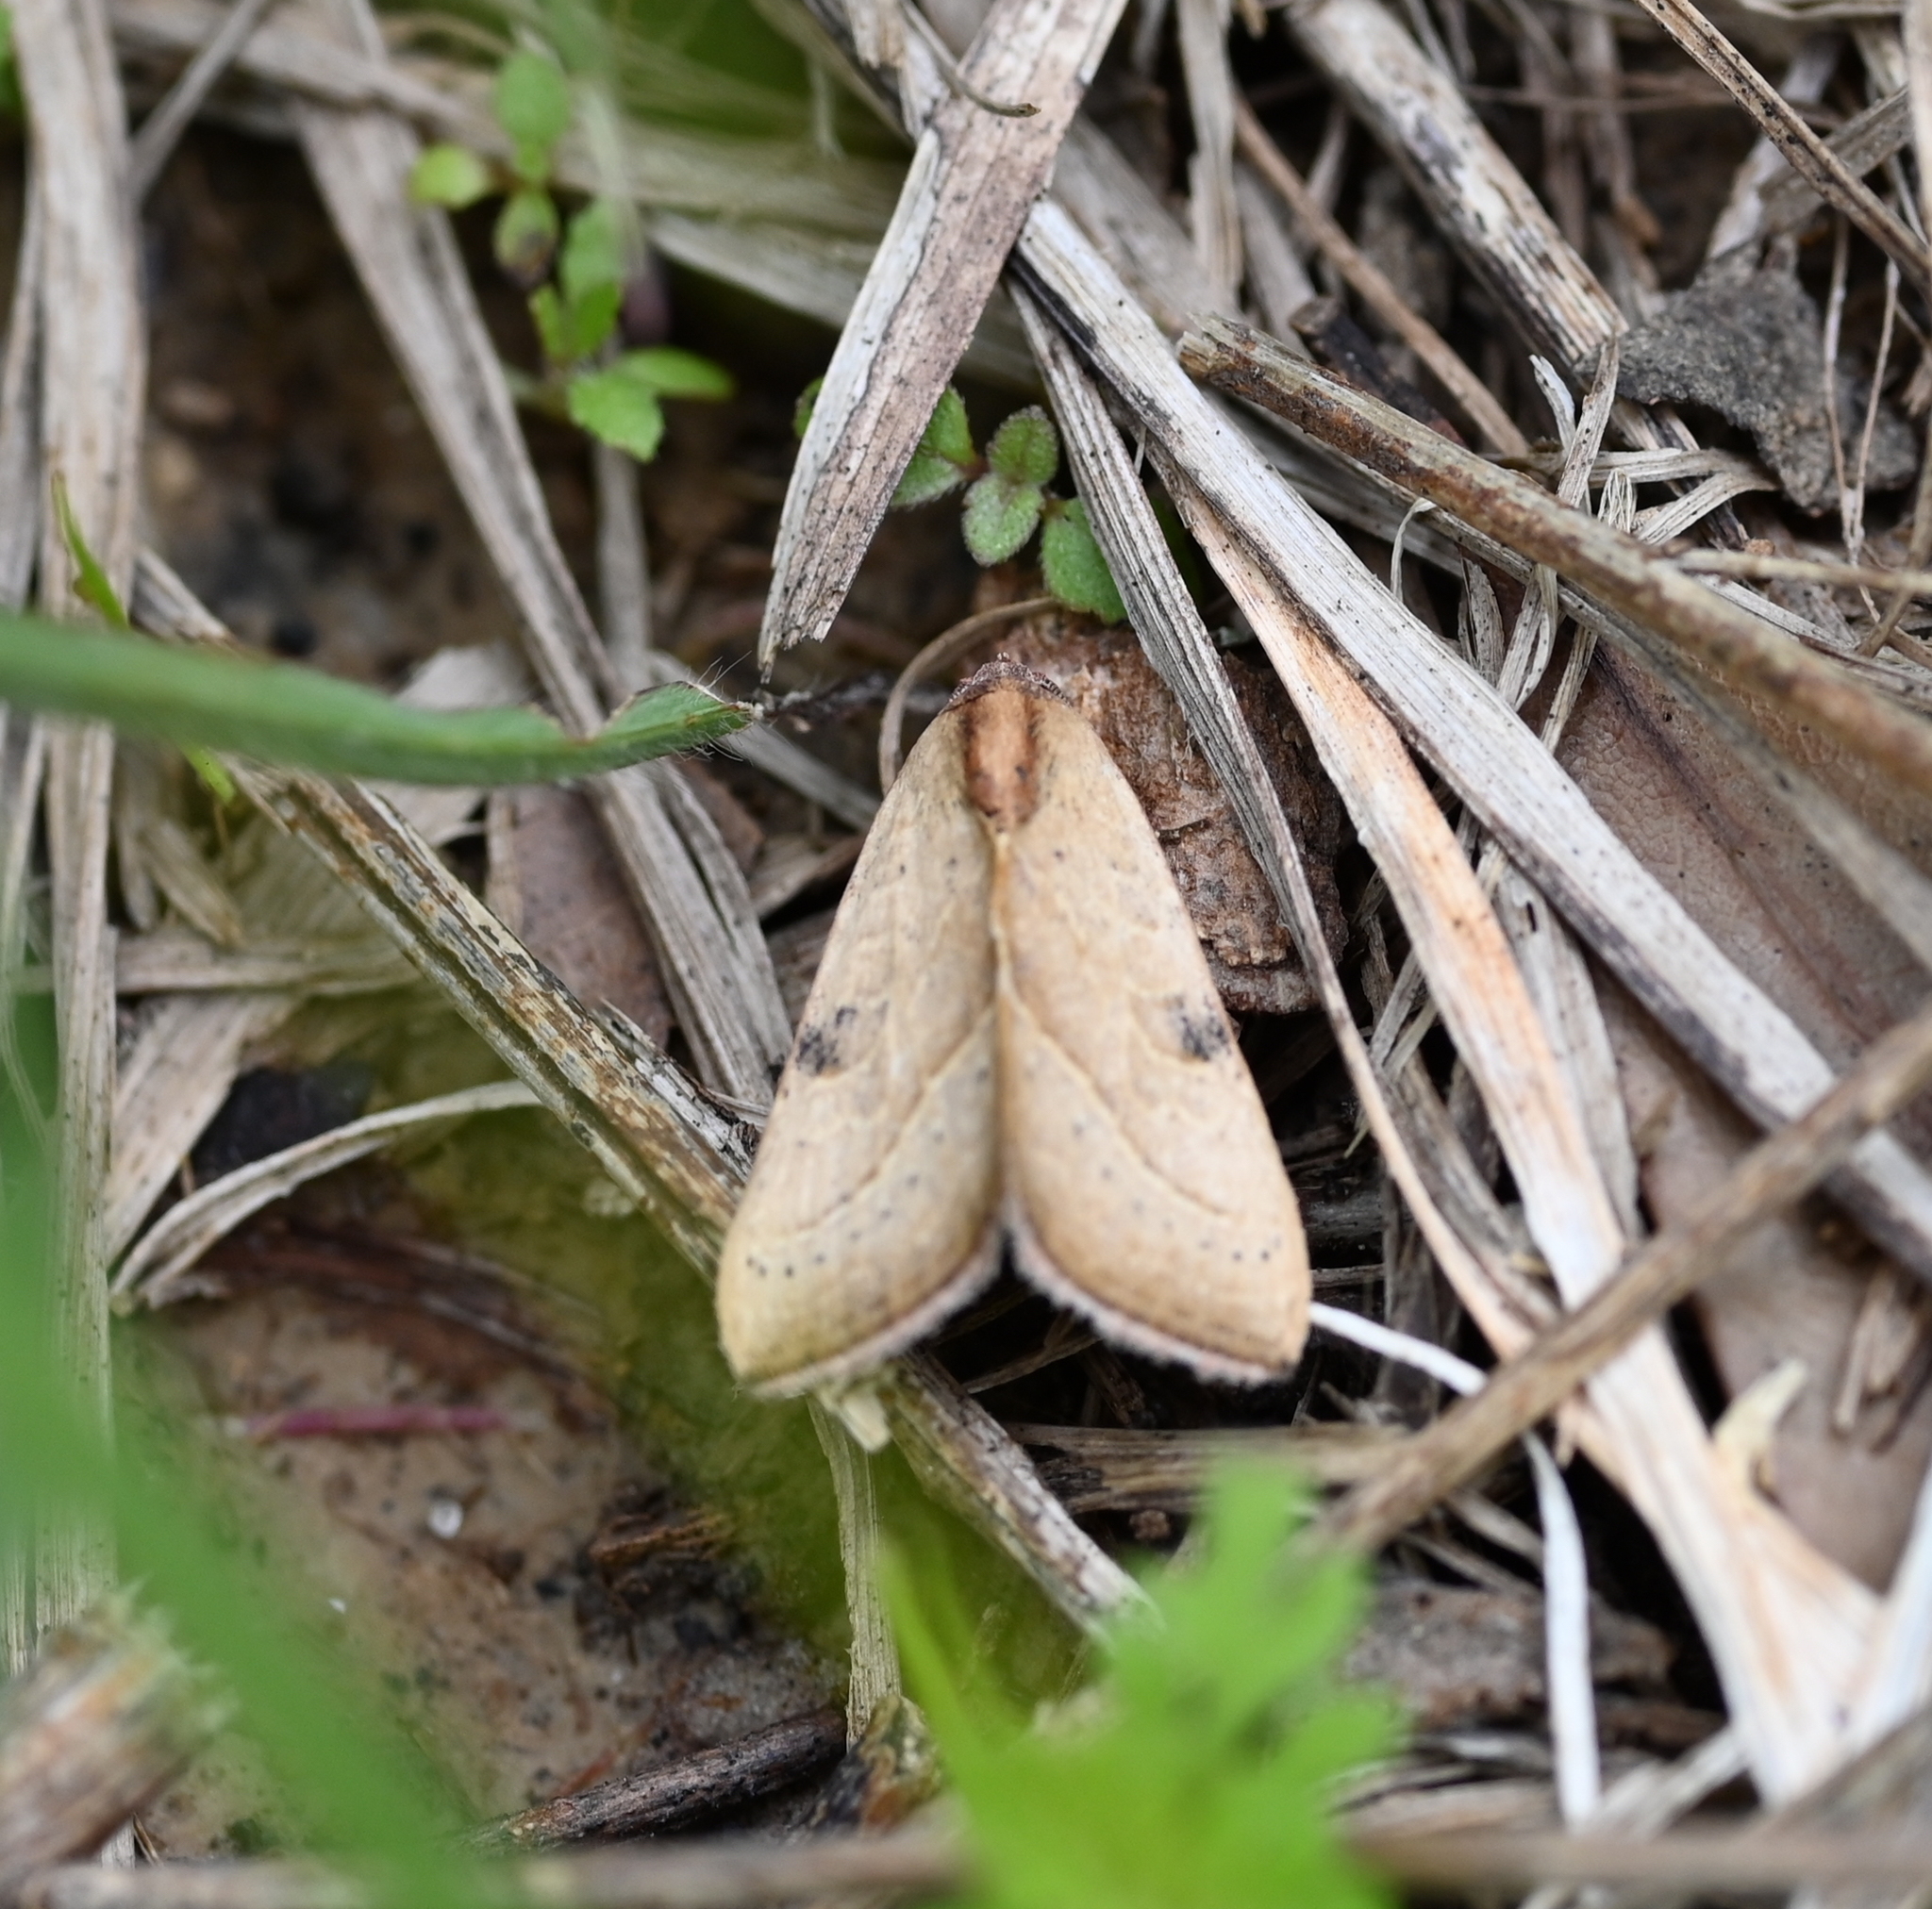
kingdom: Animalia
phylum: Arthropoda
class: Insecta
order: Lepidoptera
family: Noctuidae
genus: Galgula
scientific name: Galgula partita
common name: Wedgeling
